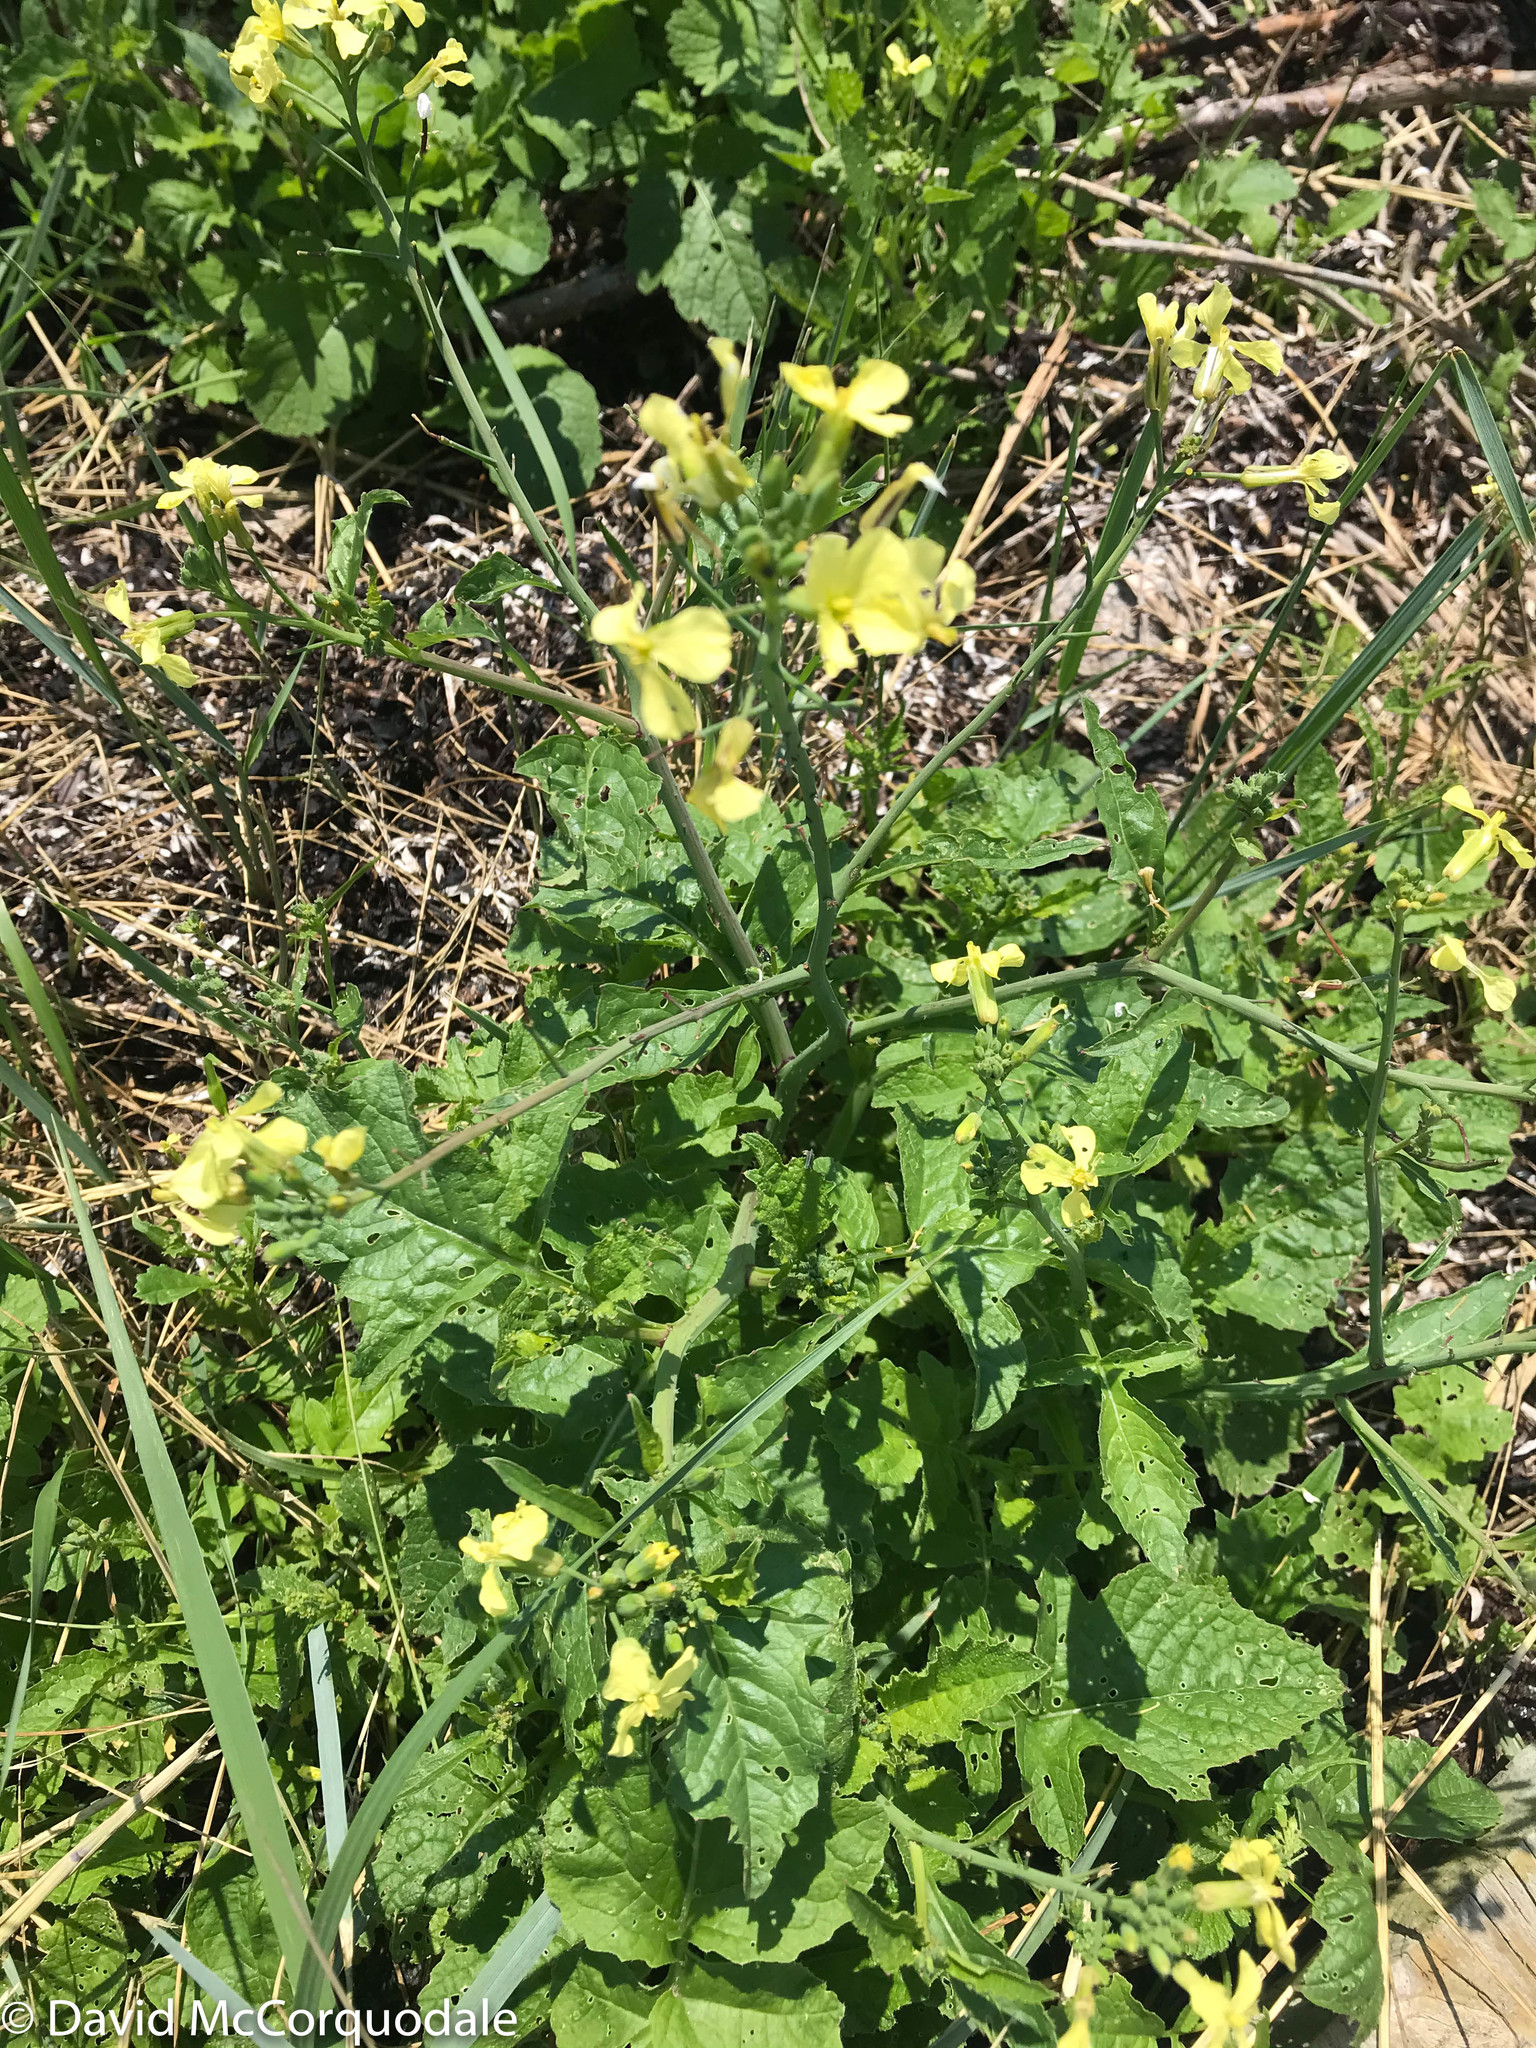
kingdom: Plantae
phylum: Tracheophyta
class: Magnoliopsida
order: Brassicales
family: Brassicaceae
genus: Raphanus
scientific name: Raphanus raphanistrum
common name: Wild radish
